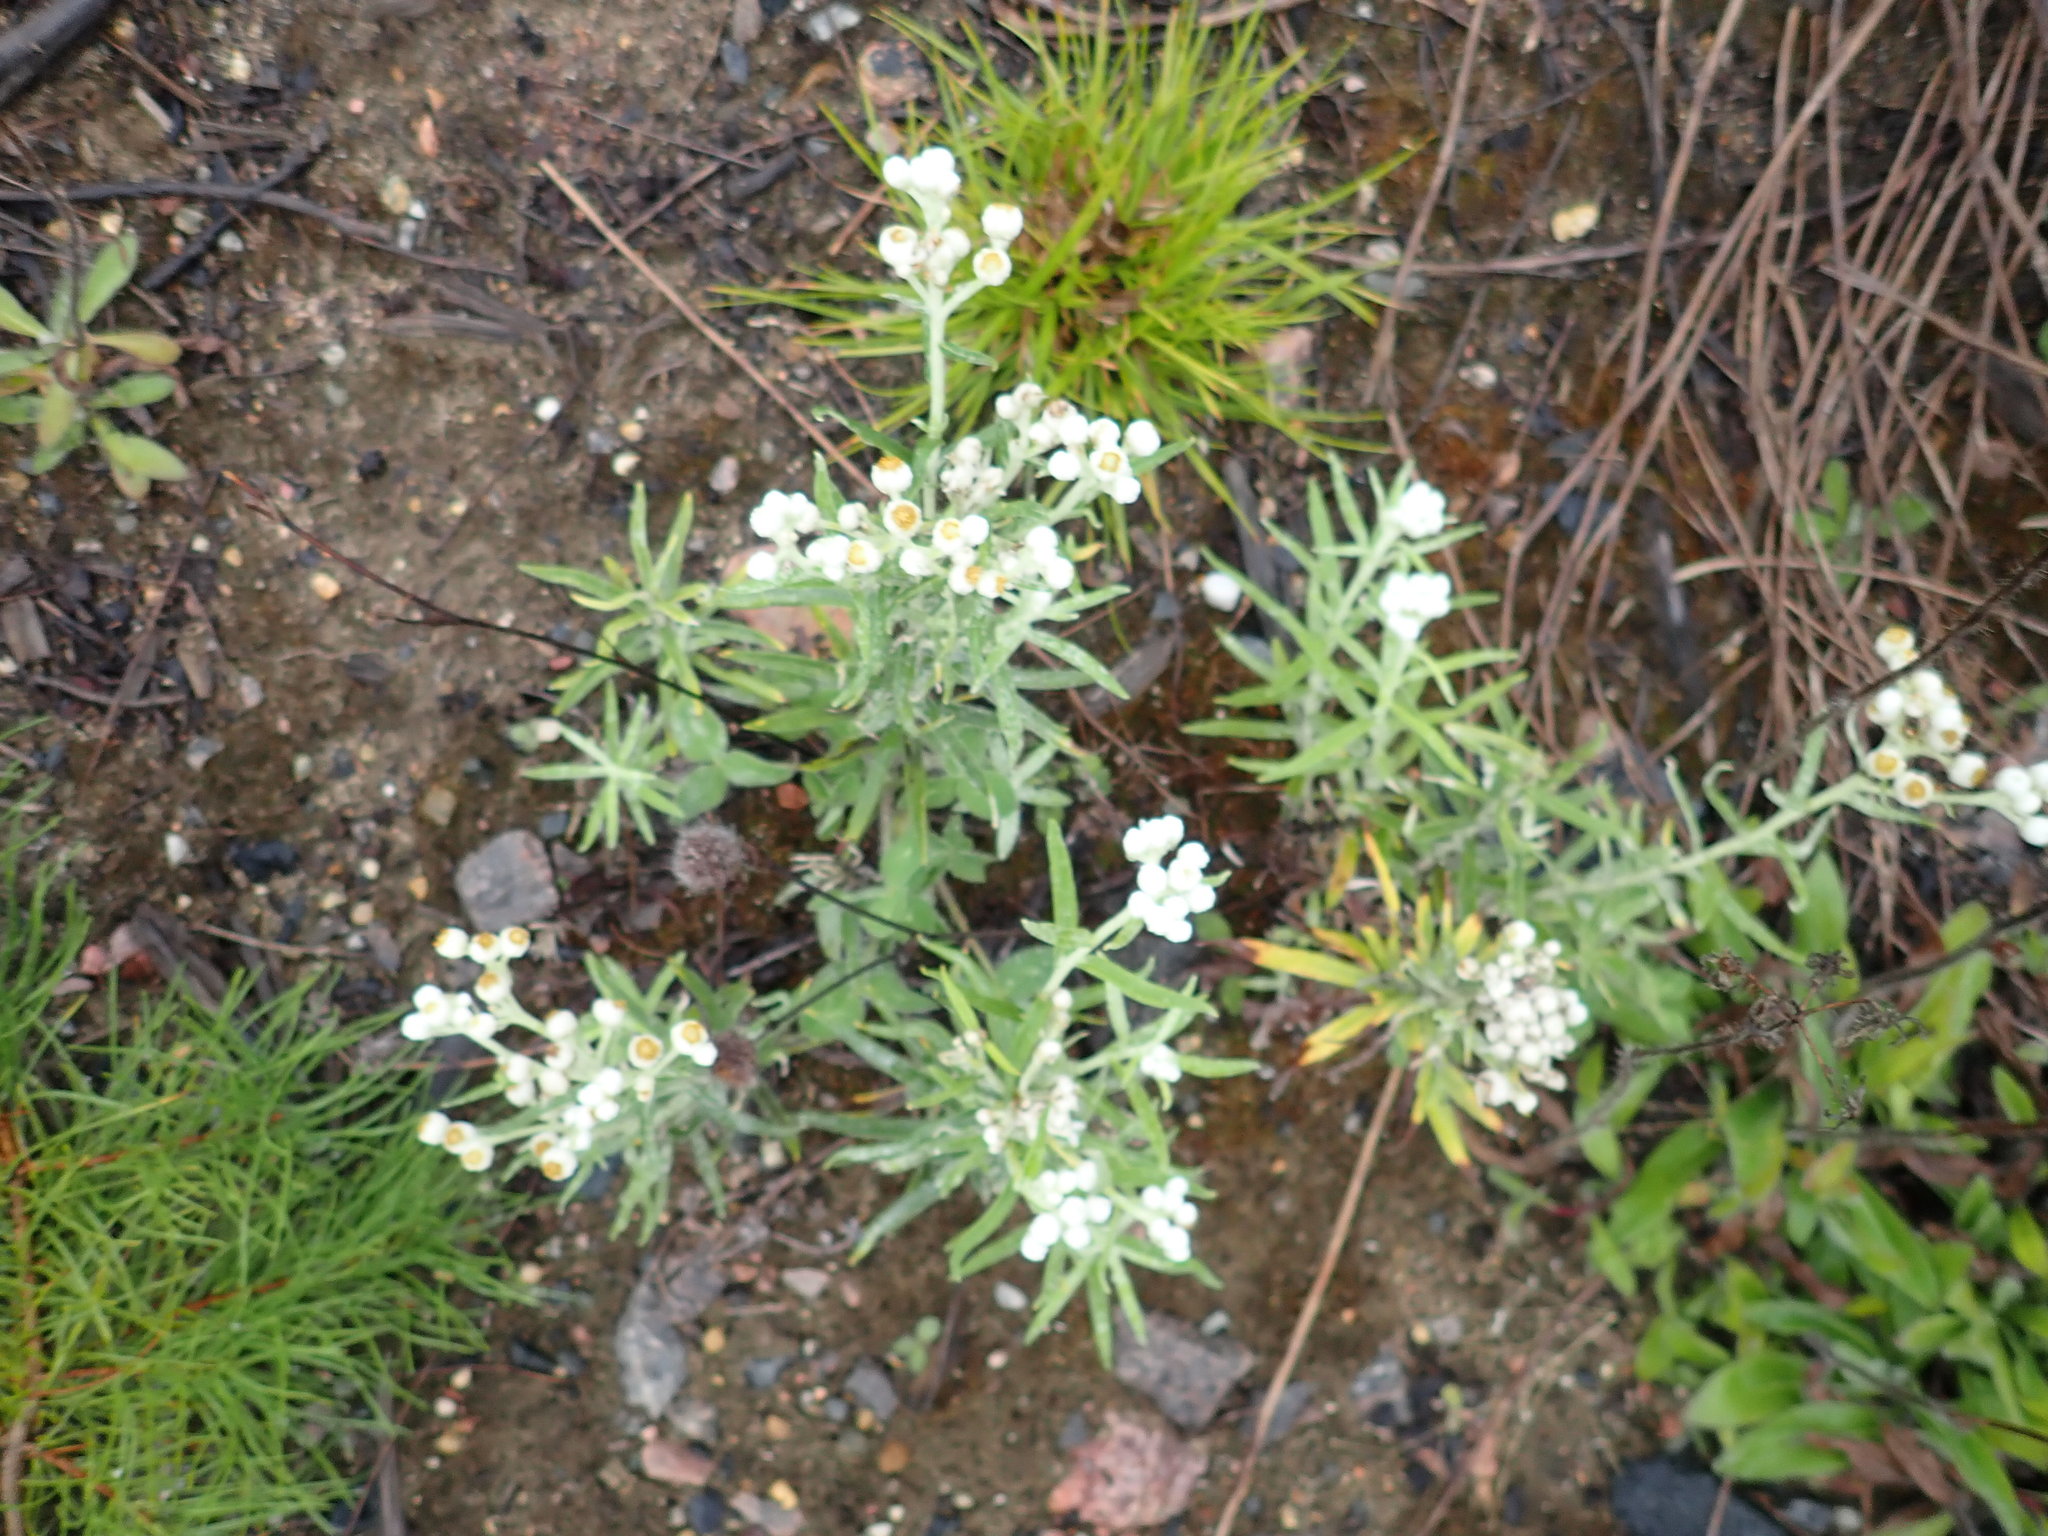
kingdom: Plantae
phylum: Tracheophyta
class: Magnoliopsida
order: Asterales
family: Asteraceae
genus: Anaphalis
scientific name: Anaphalis margaritacea
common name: Pearly everlasting
